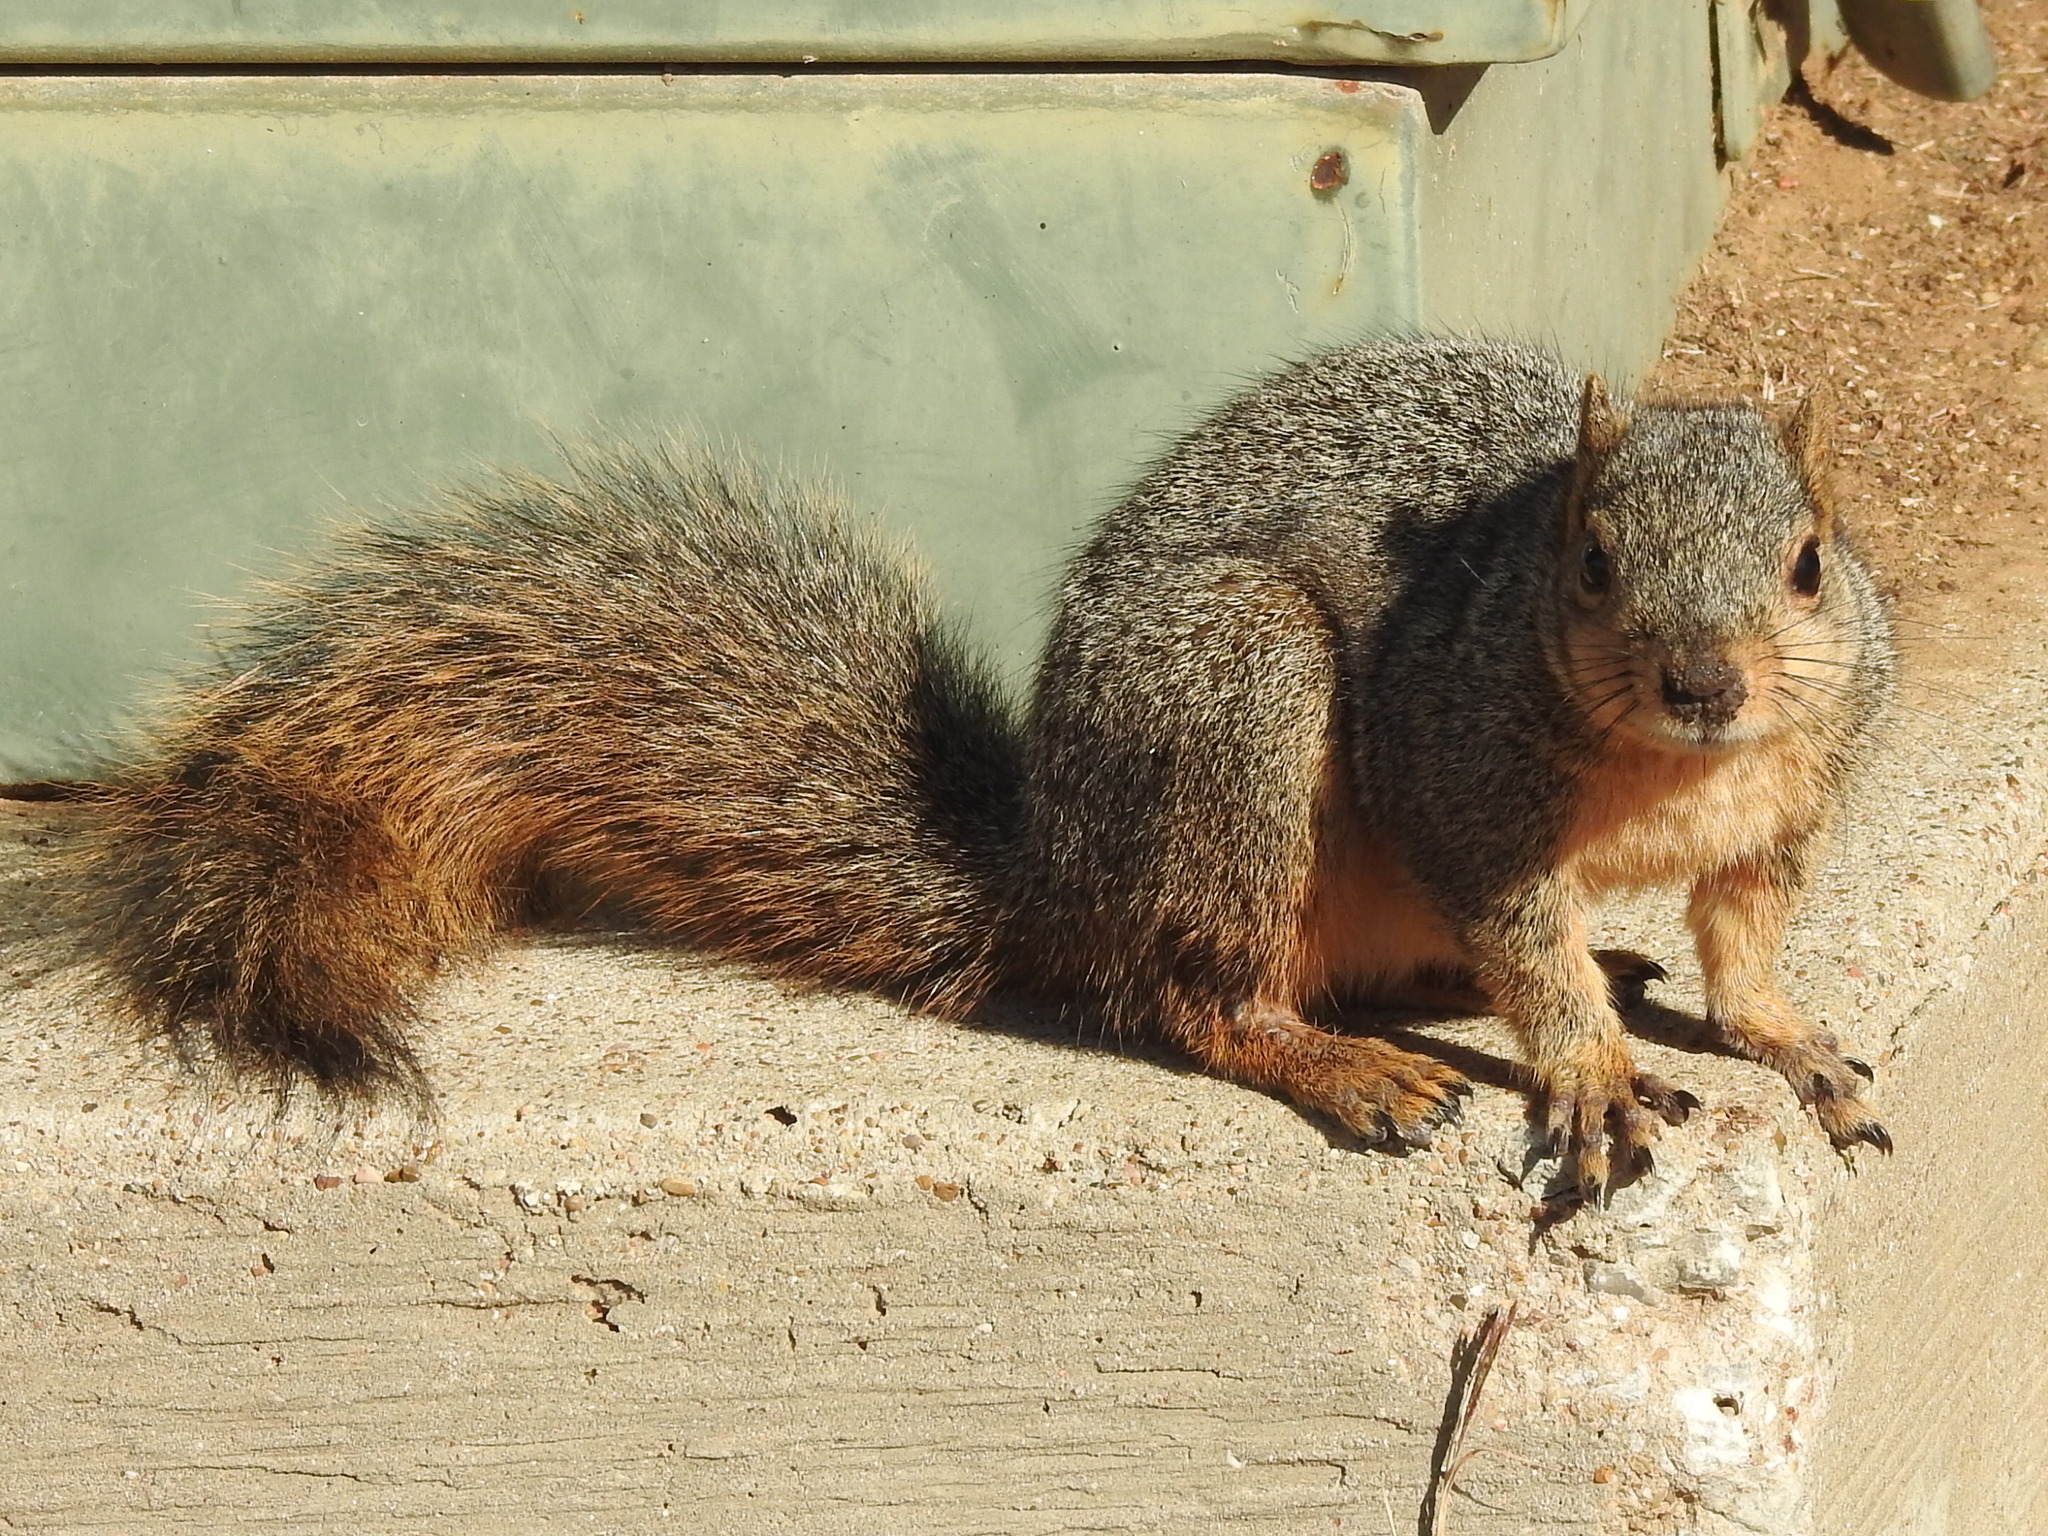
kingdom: Animalia
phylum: Chordata
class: Mammalia
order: Rodentia
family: Sciuridae
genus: Sciurus
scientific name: Sciurus niger
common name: Fox squirrel
